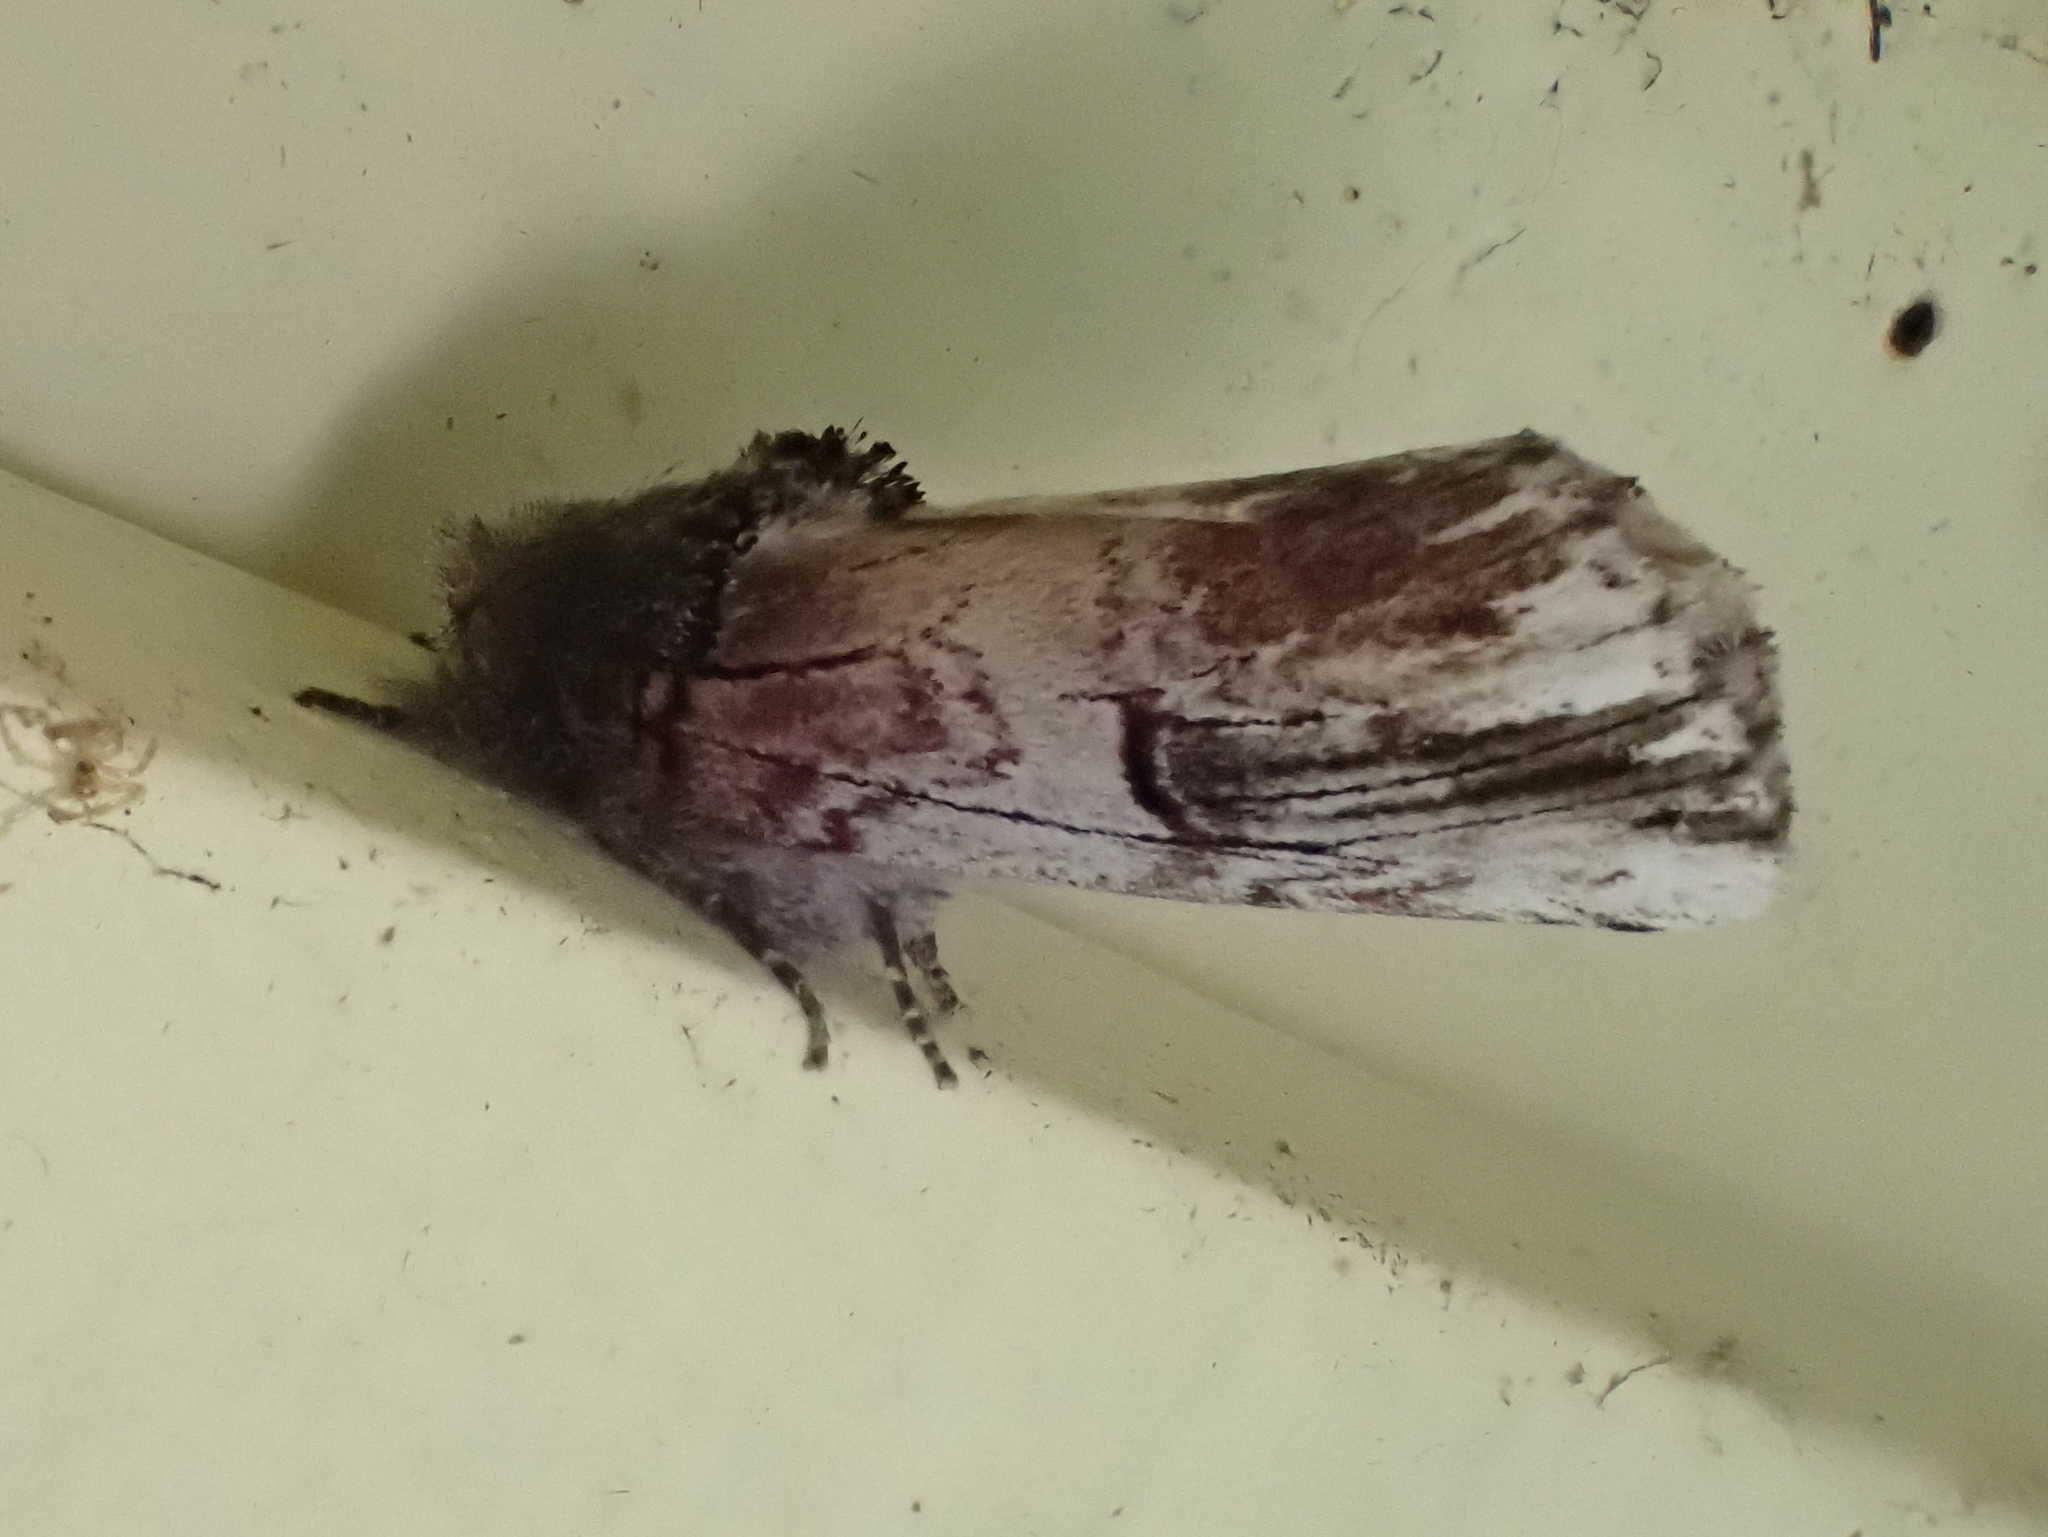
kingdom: Animalia
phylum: Arthropoda
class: Insecta
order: Lepidoptera
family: Notodontidae
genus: Schizura
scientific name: Schizura badia
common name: Chestnut schizura
